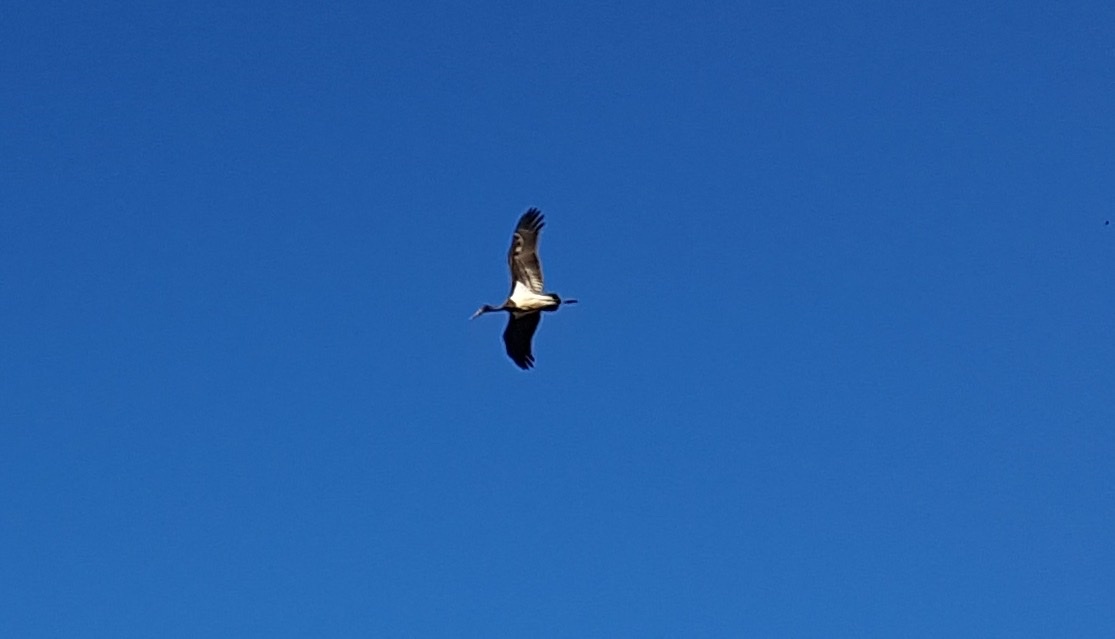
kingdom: Animalia
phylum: Chordata
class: Aves
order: Ciconiiformes
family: Ciconiidae
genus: Ciconia
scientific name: Ciconia nigra
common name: Black stork
